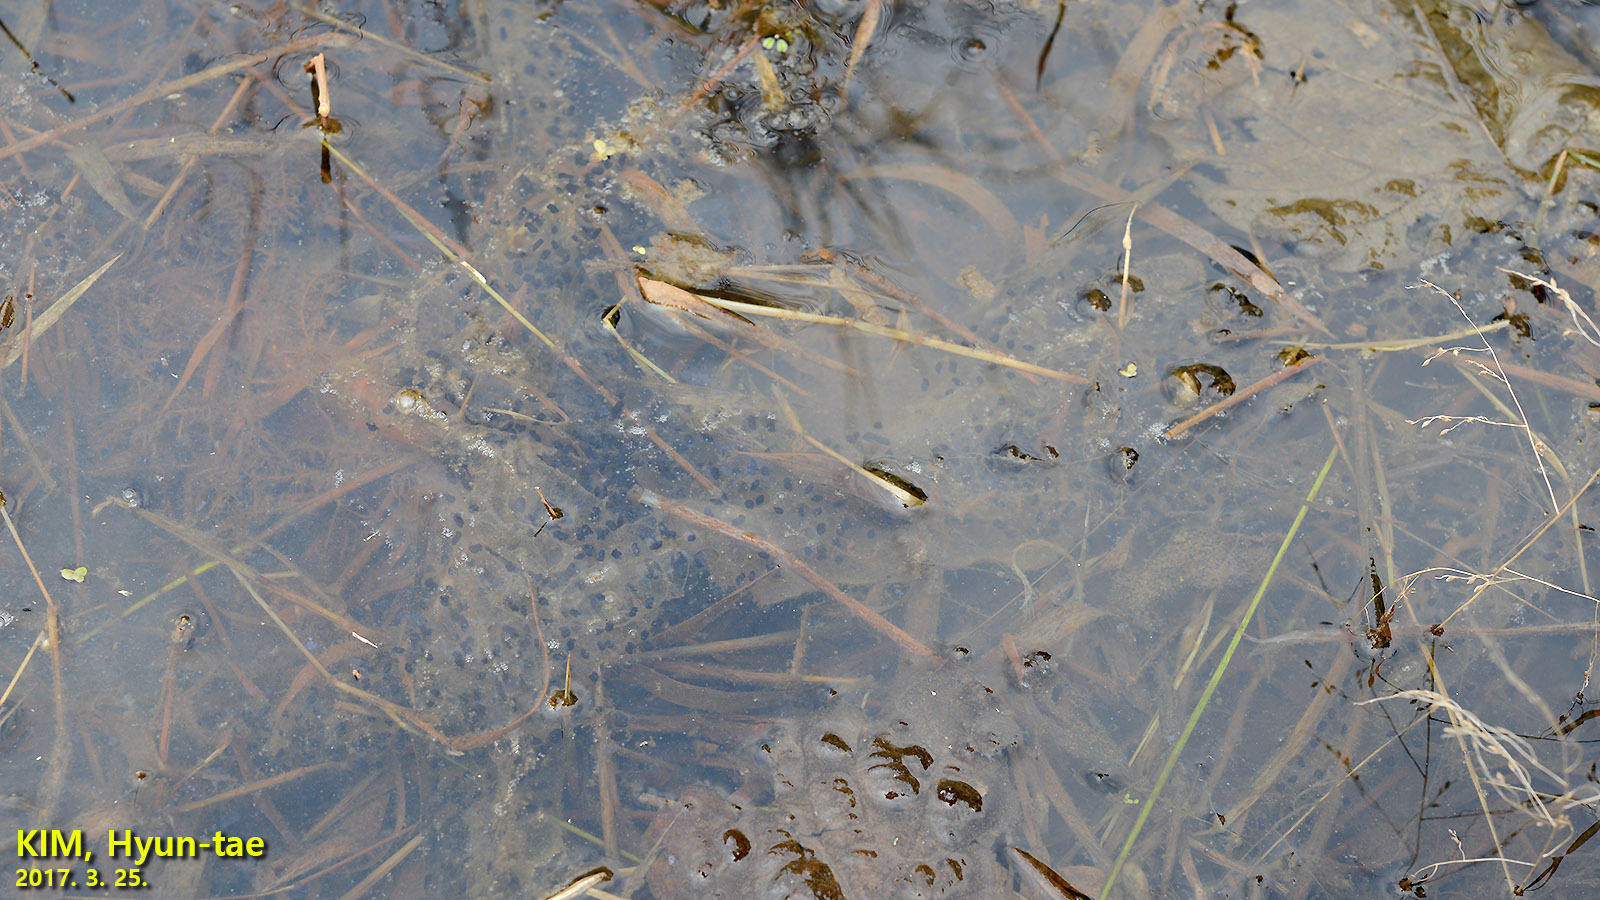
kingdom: Animalia
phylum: Chordata
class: Amphibia
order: Anura
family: Bufonidae
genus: Bufo
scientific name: Bufo gargarizans
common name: Asiatic toad
